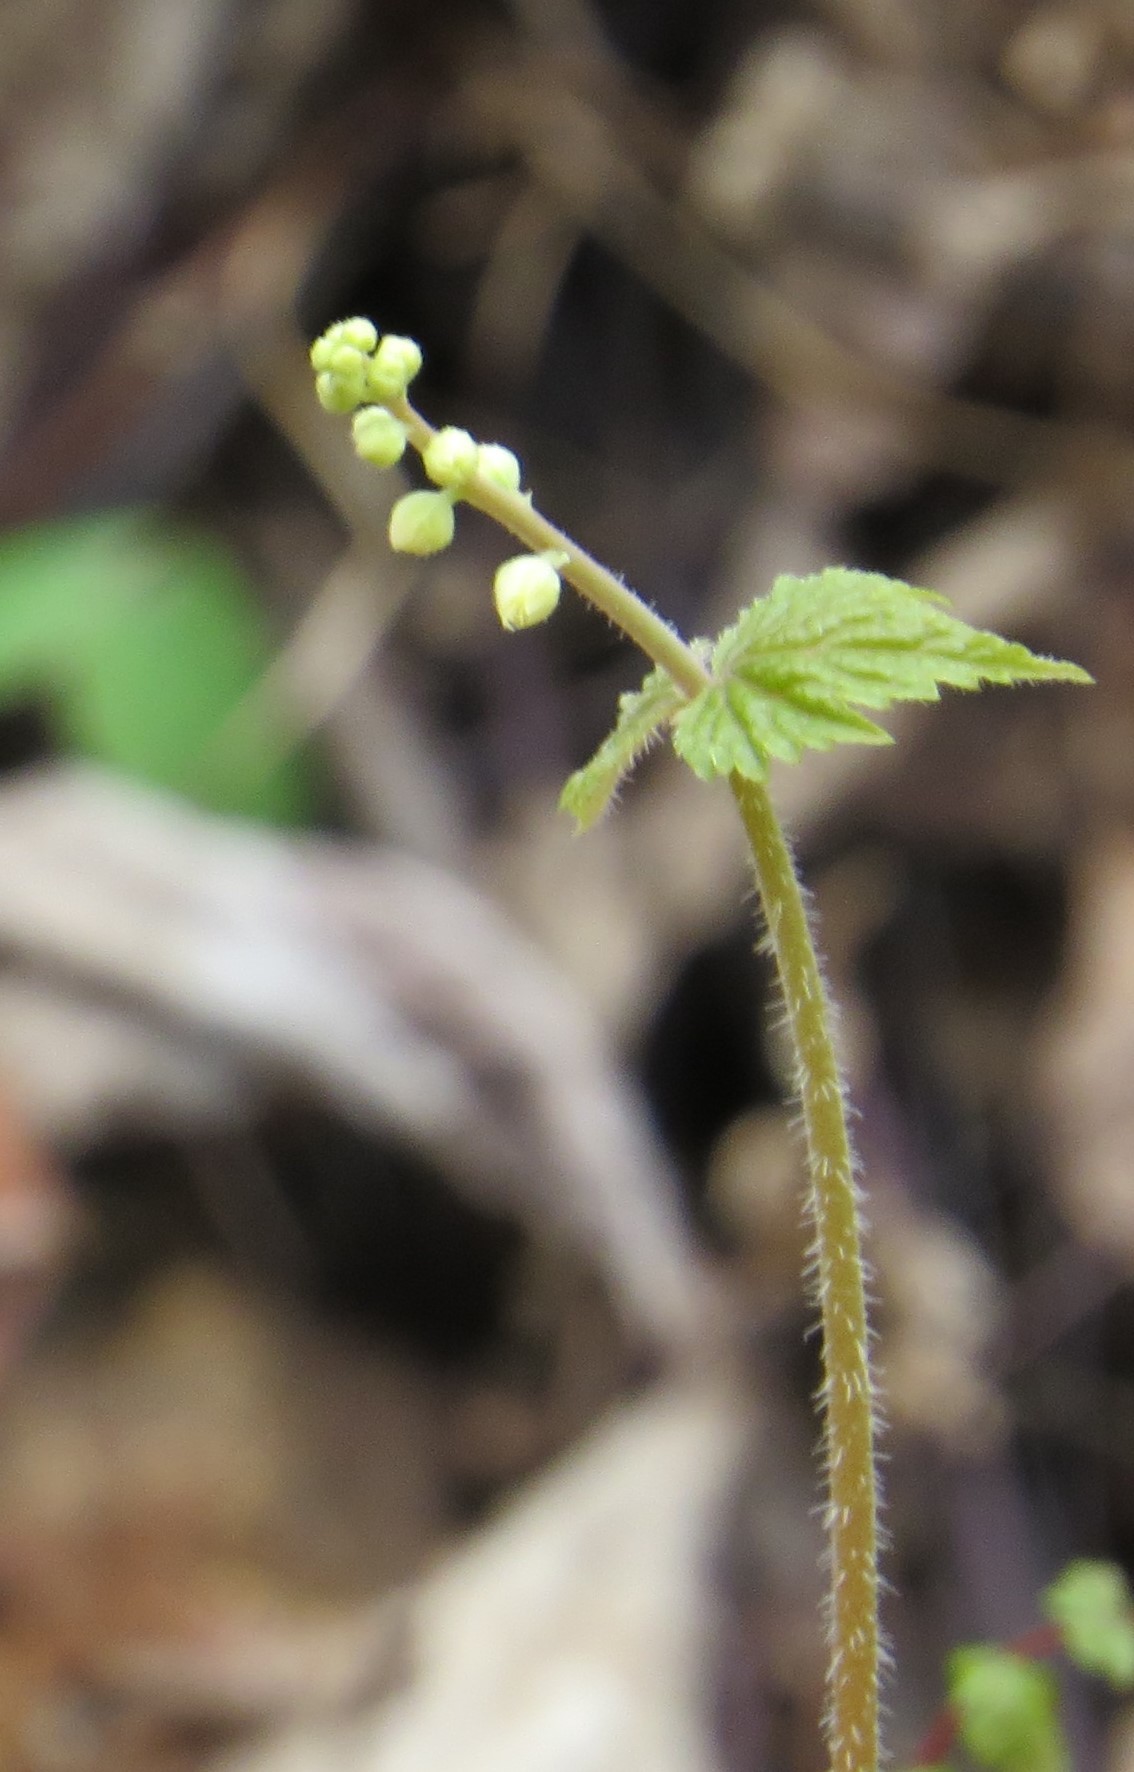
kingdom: Plantae
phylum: Tracheophyta
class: Magnoliopsida
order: Saxifragales
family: Saxifragaceae
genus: Mitella
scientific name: Mitella diphylla
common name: Coolwort
